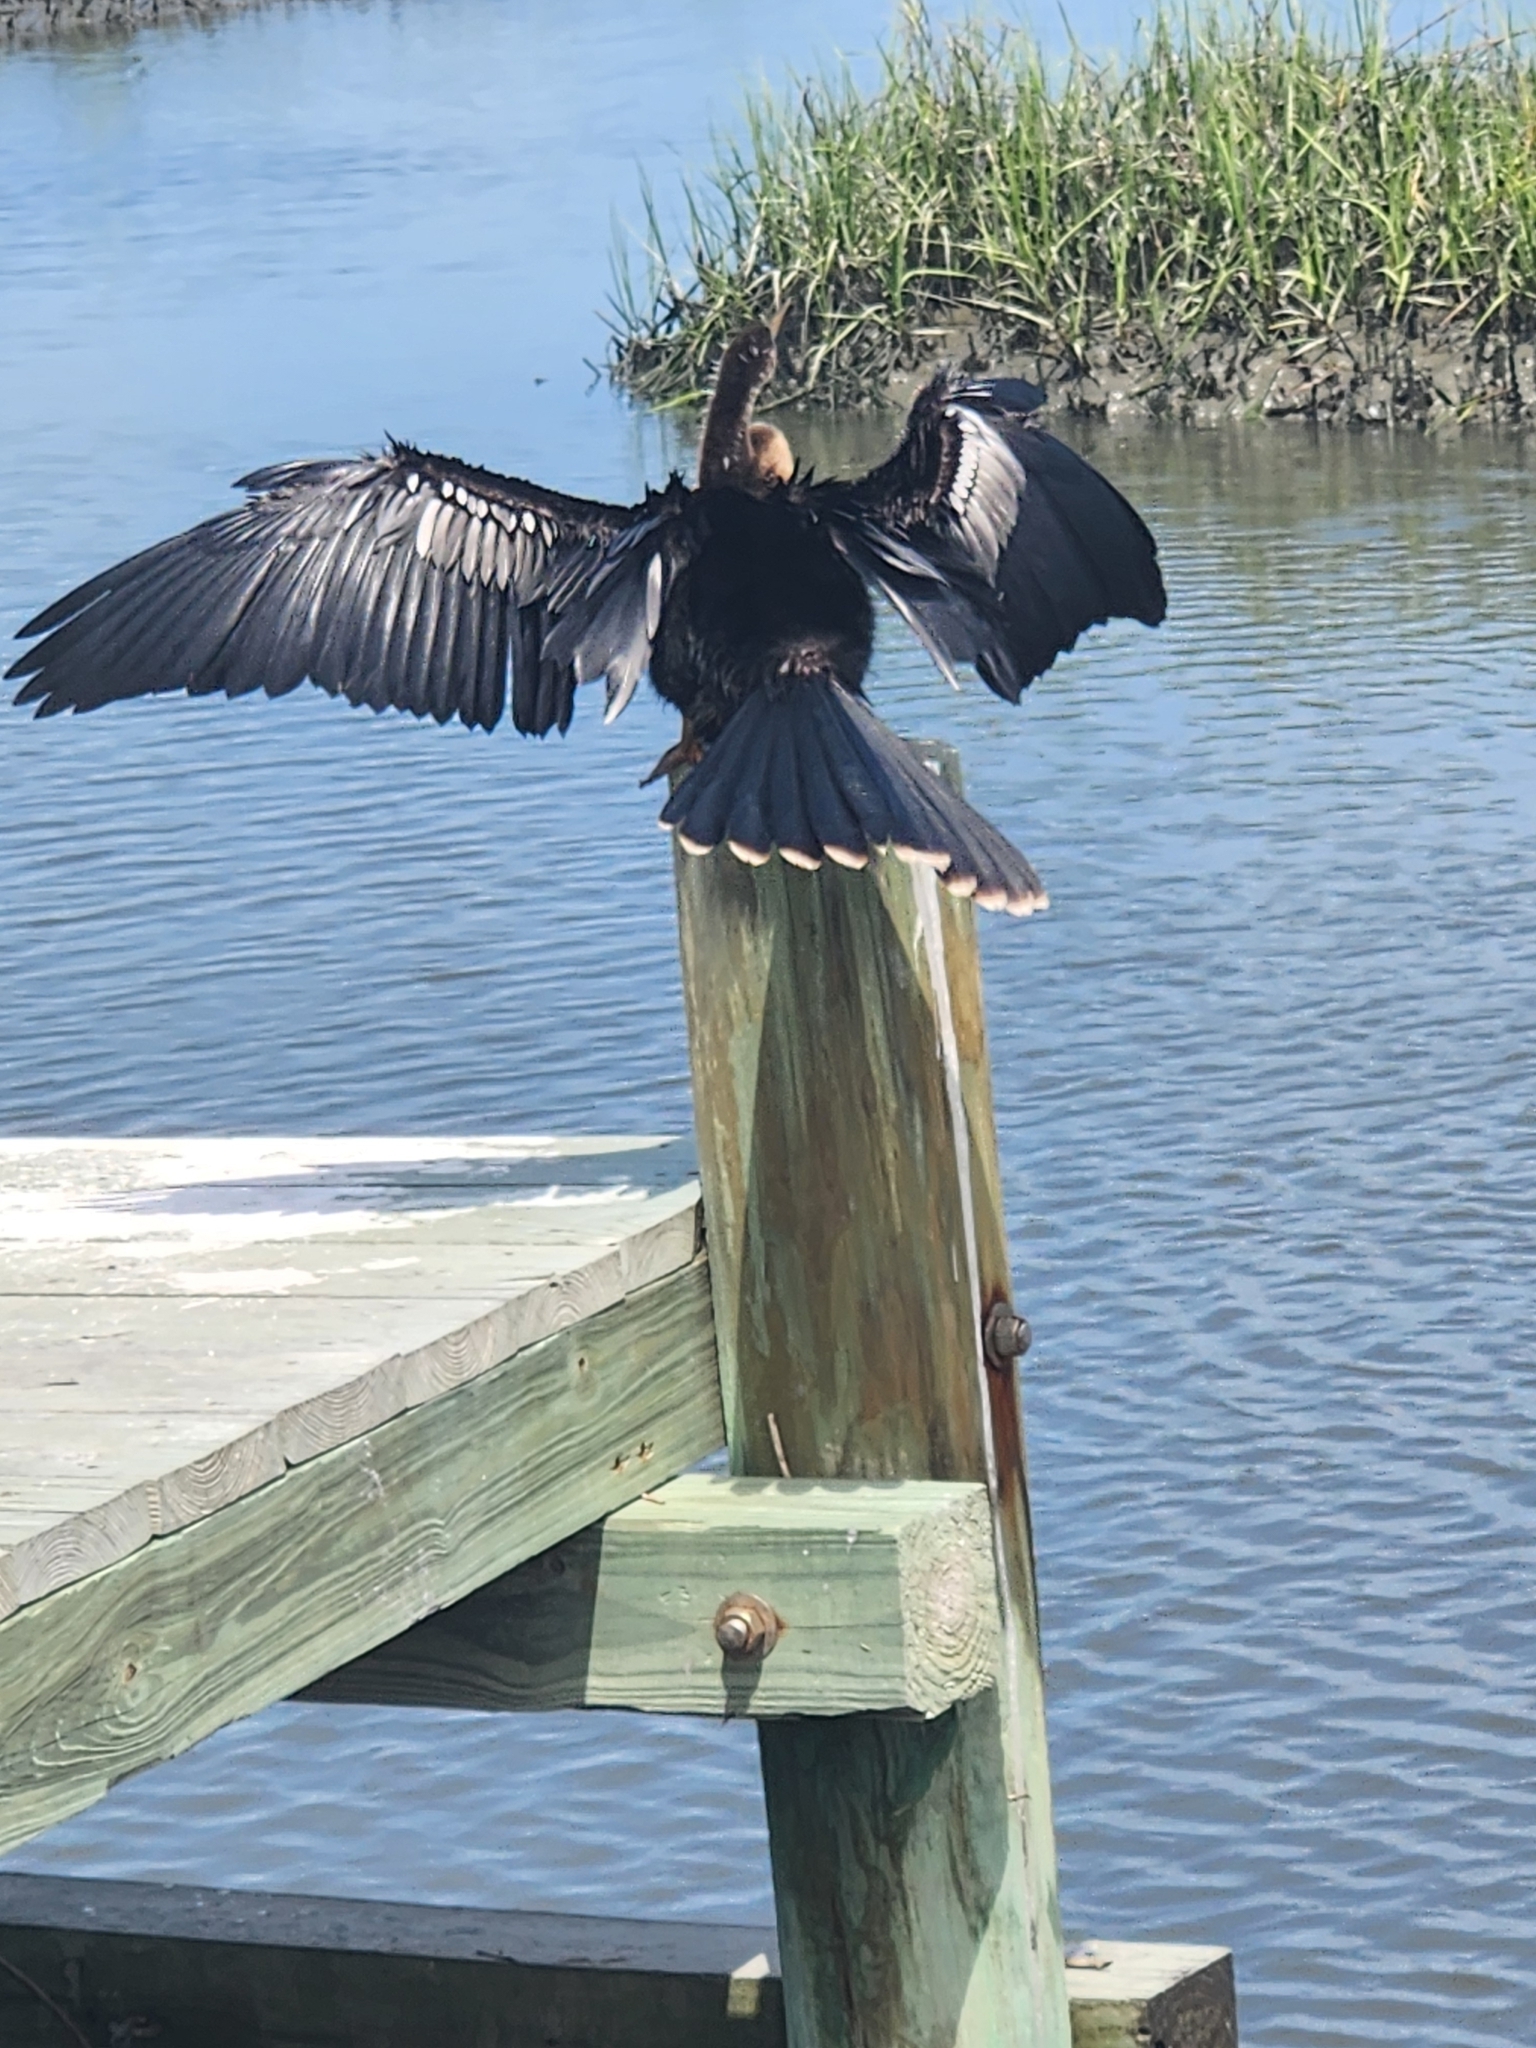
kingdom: Animalia
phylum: Chordata
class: Aves
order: Suliformes
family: Anhingidae
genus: Anhinga
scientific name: Anhinga anhinga
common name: Anhinga
